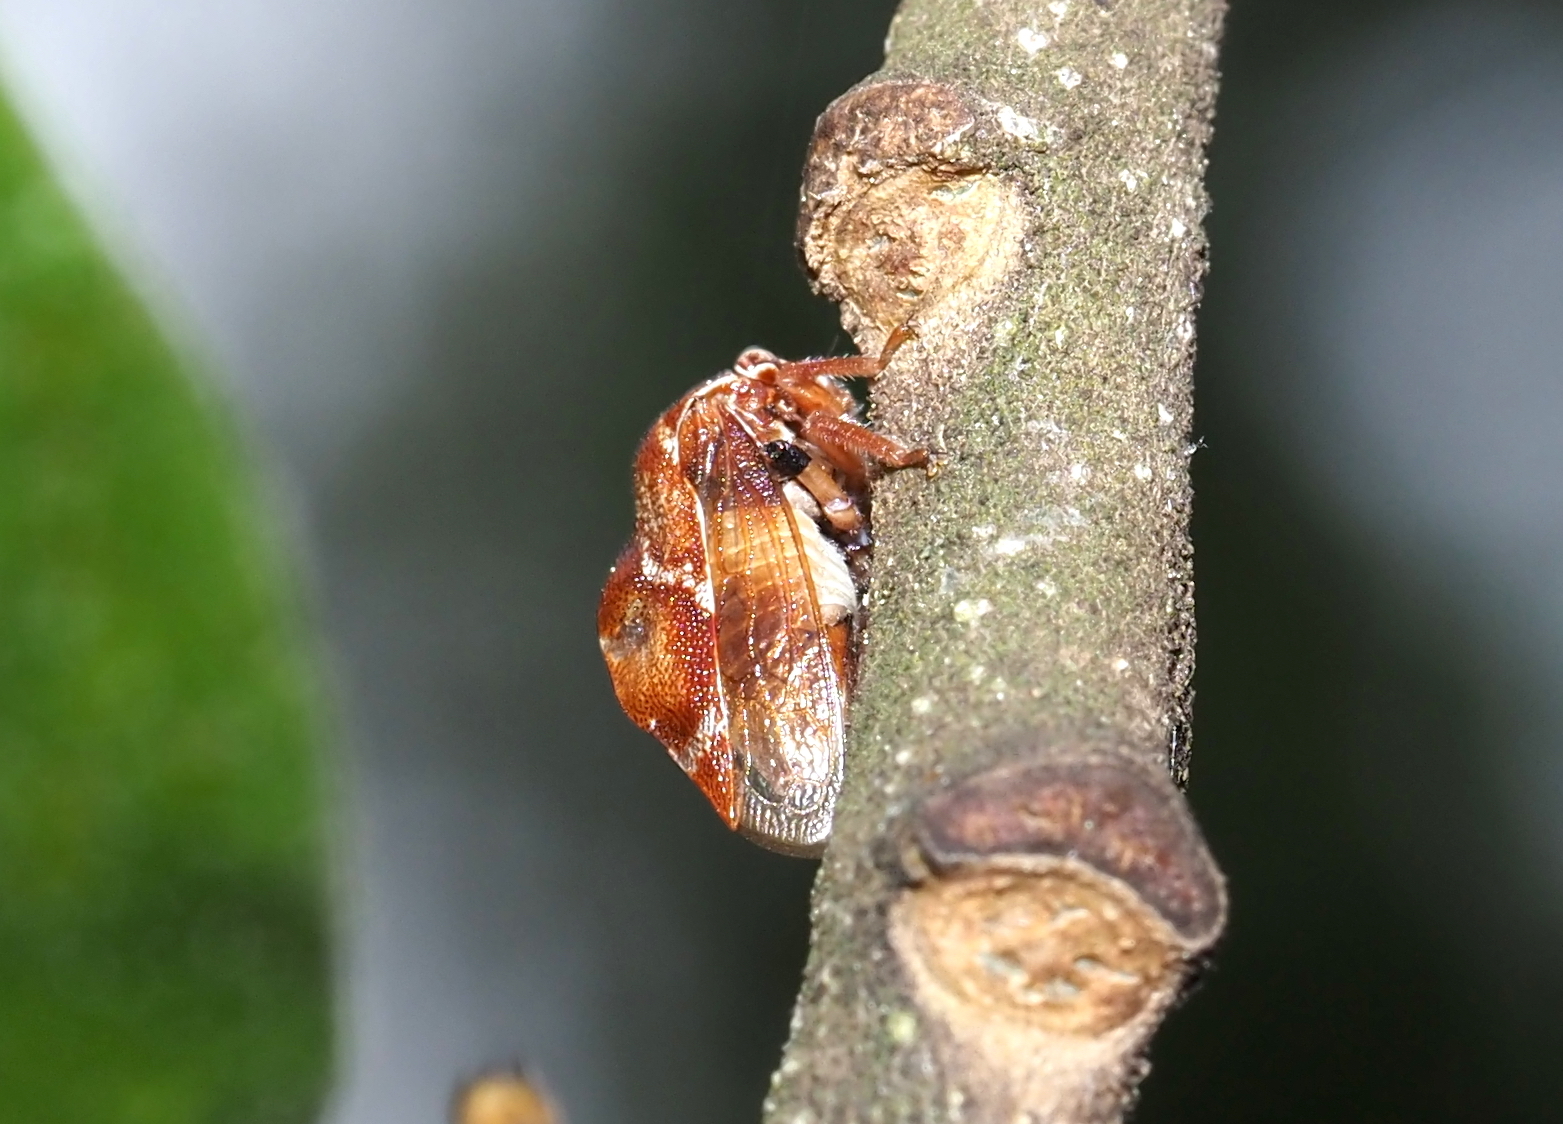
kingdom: Animalia
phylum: Arthropoda
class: Insecta
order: Hemiptera
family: Membracidae
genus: Xantholobus
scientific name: Xantholobus mutica
